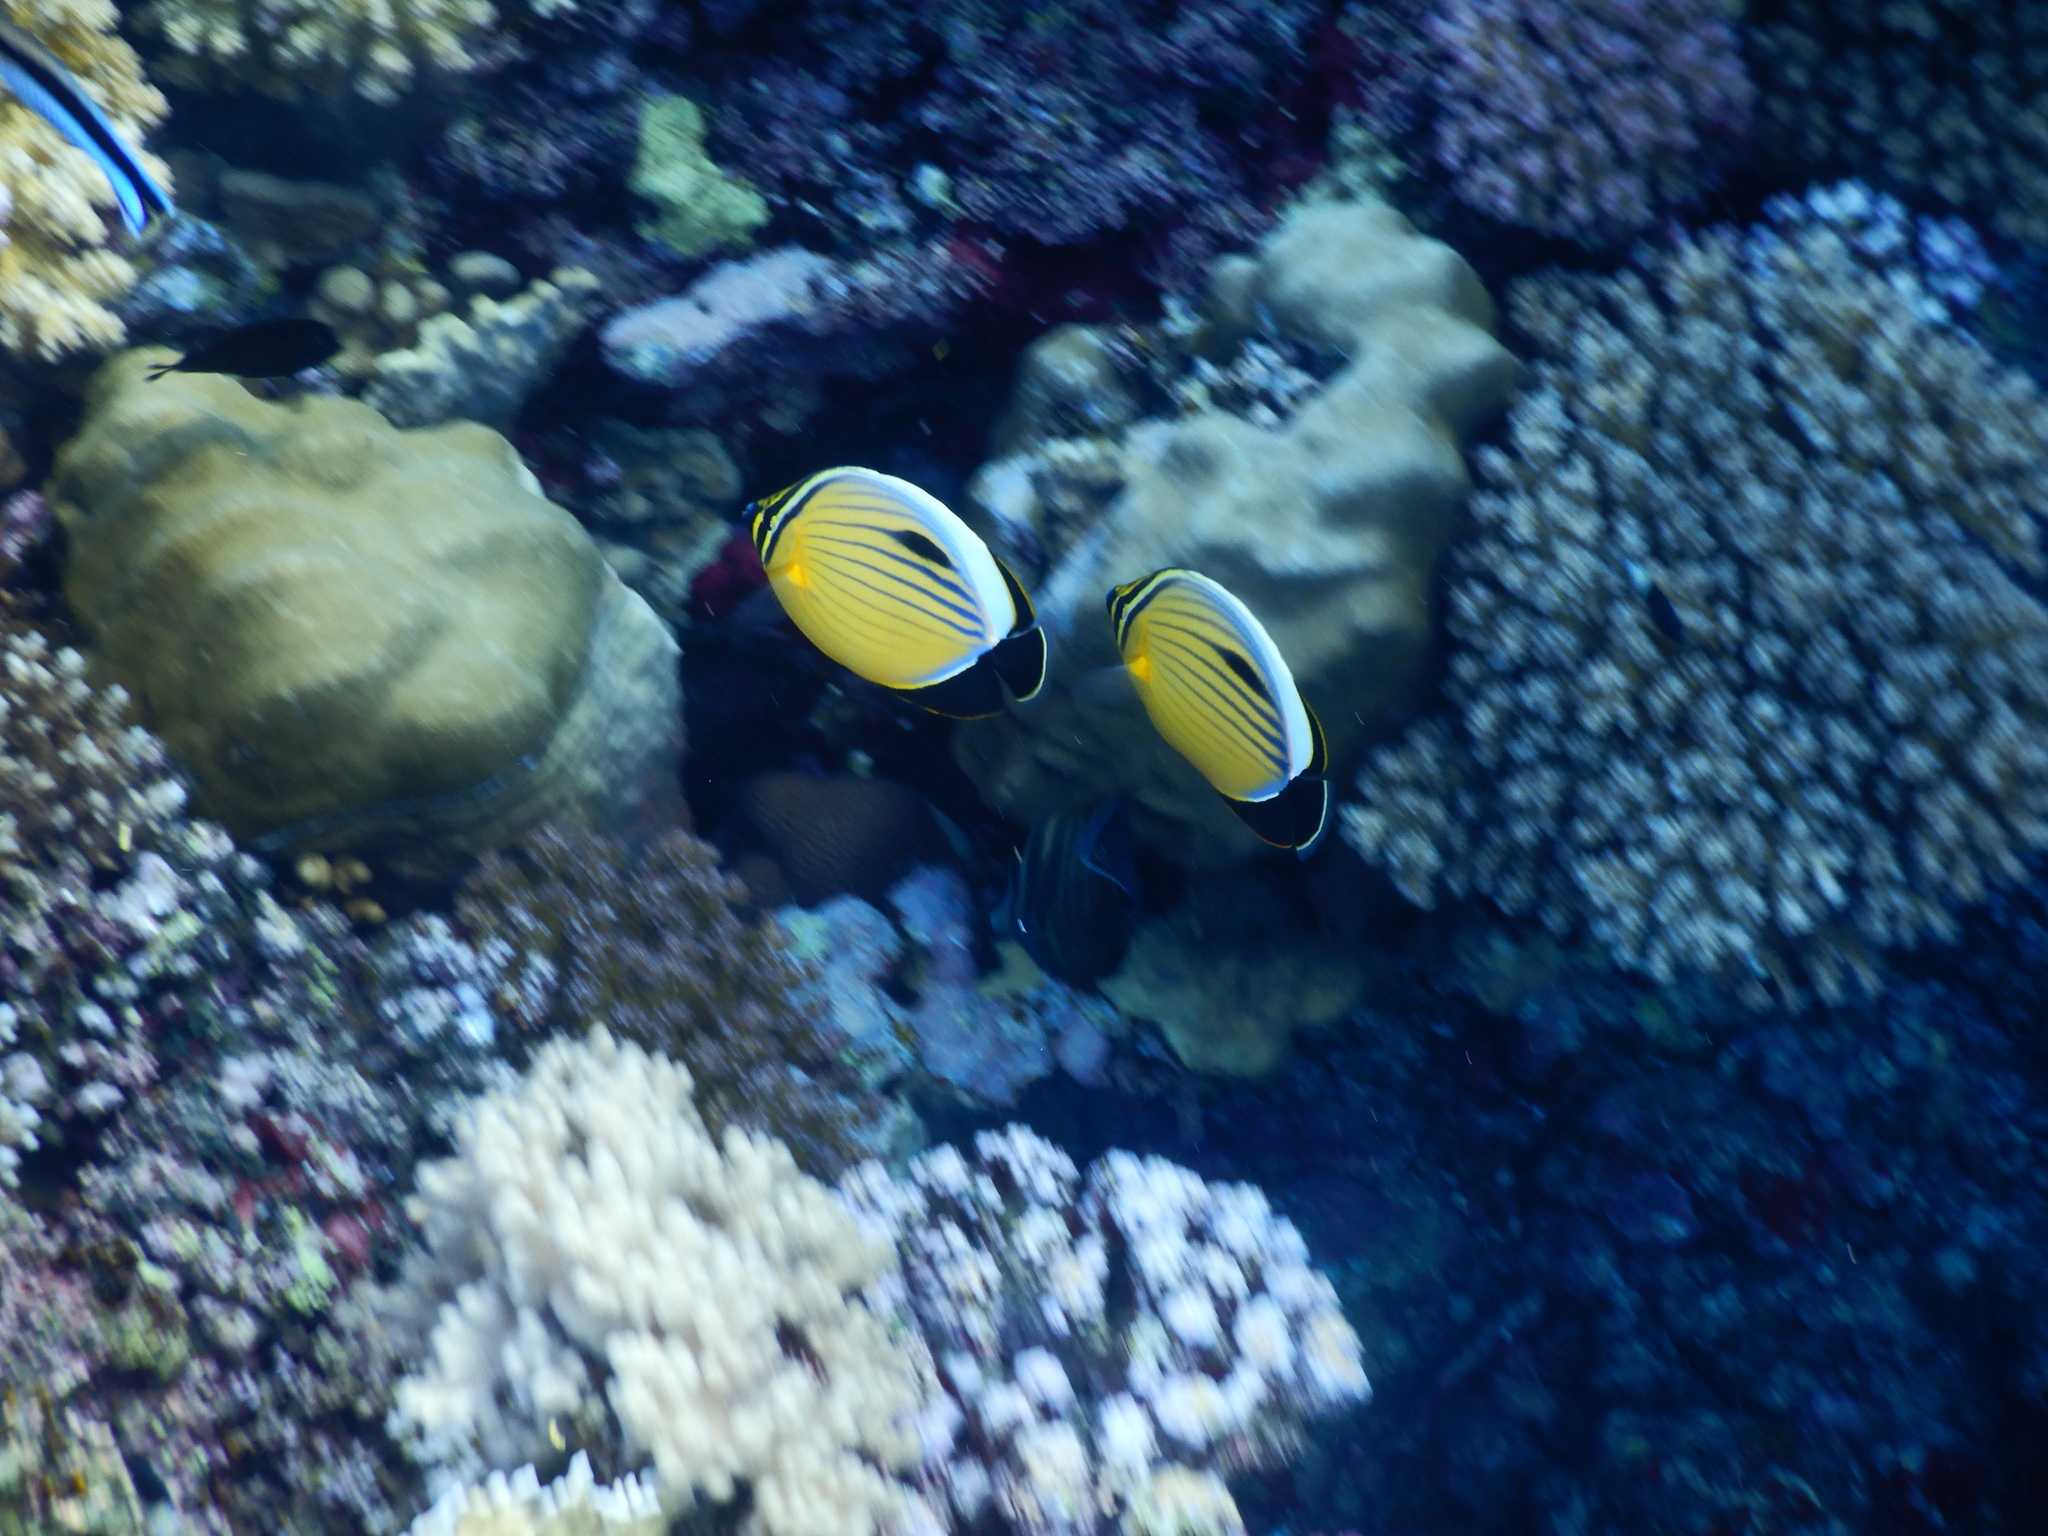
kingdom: Animalia
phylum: Chordata
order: Perciformes
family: Chaetodontidae
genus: Chaetodon
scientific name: Chaetodon austriacus
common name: Exquisite butterflyfish
